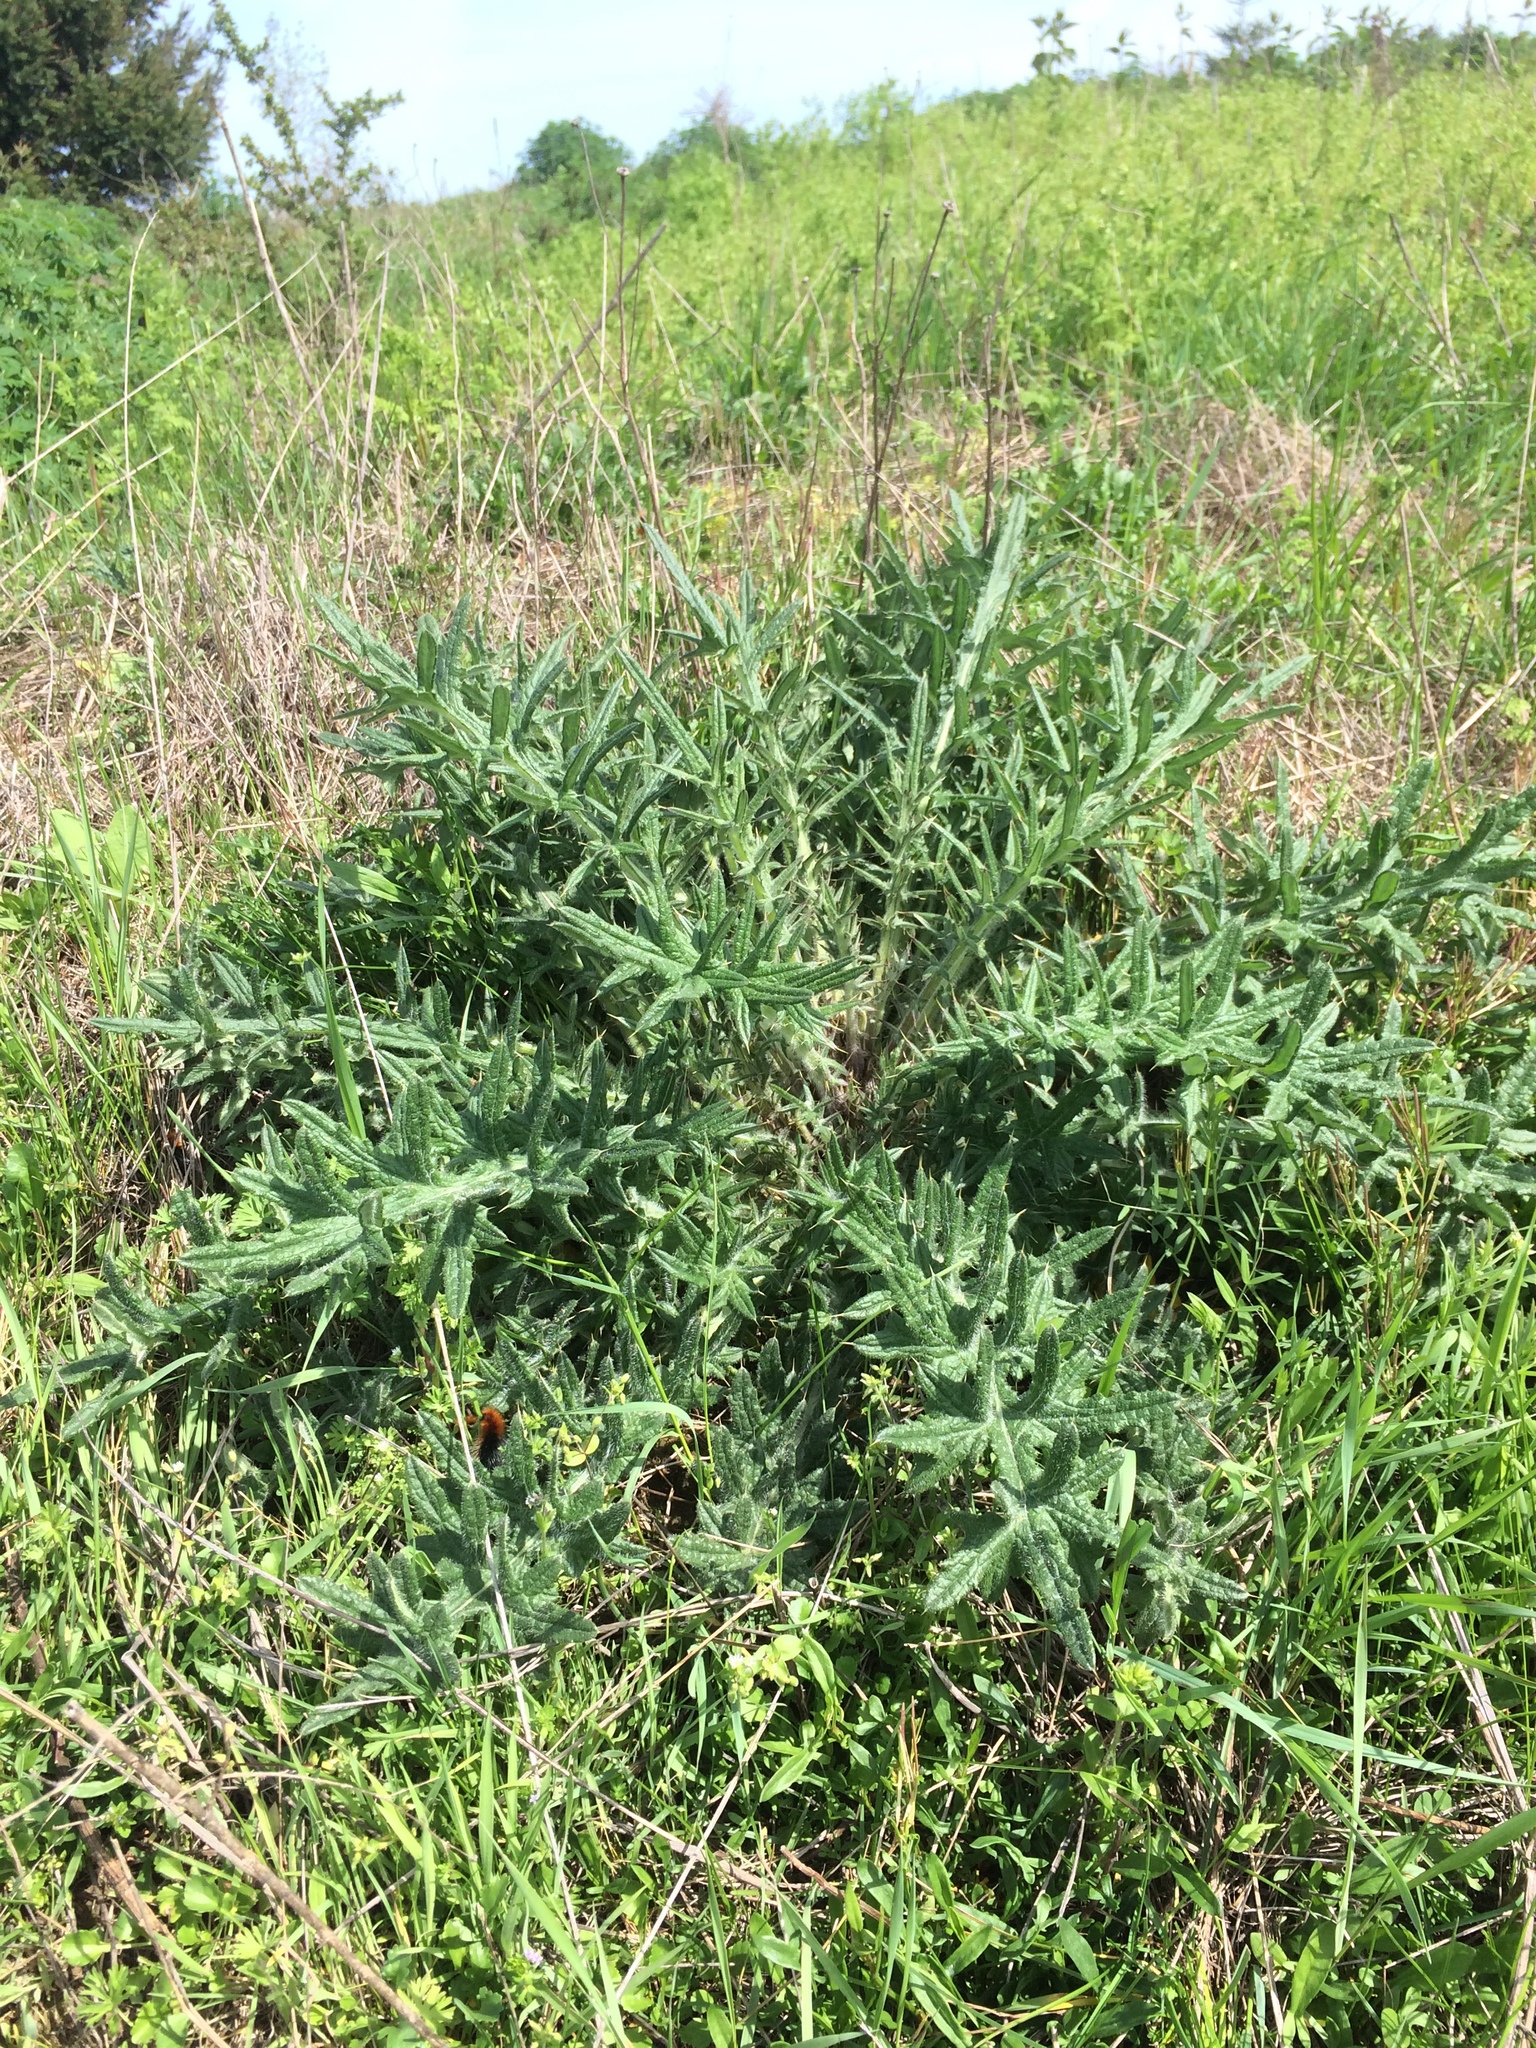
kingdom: Plantae
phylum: Tracheophyta
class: Magnoliopsida
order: Asterales
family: Asteraceae
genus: Cirsium
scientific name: Cirsium vulgare
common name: Bull thistle
